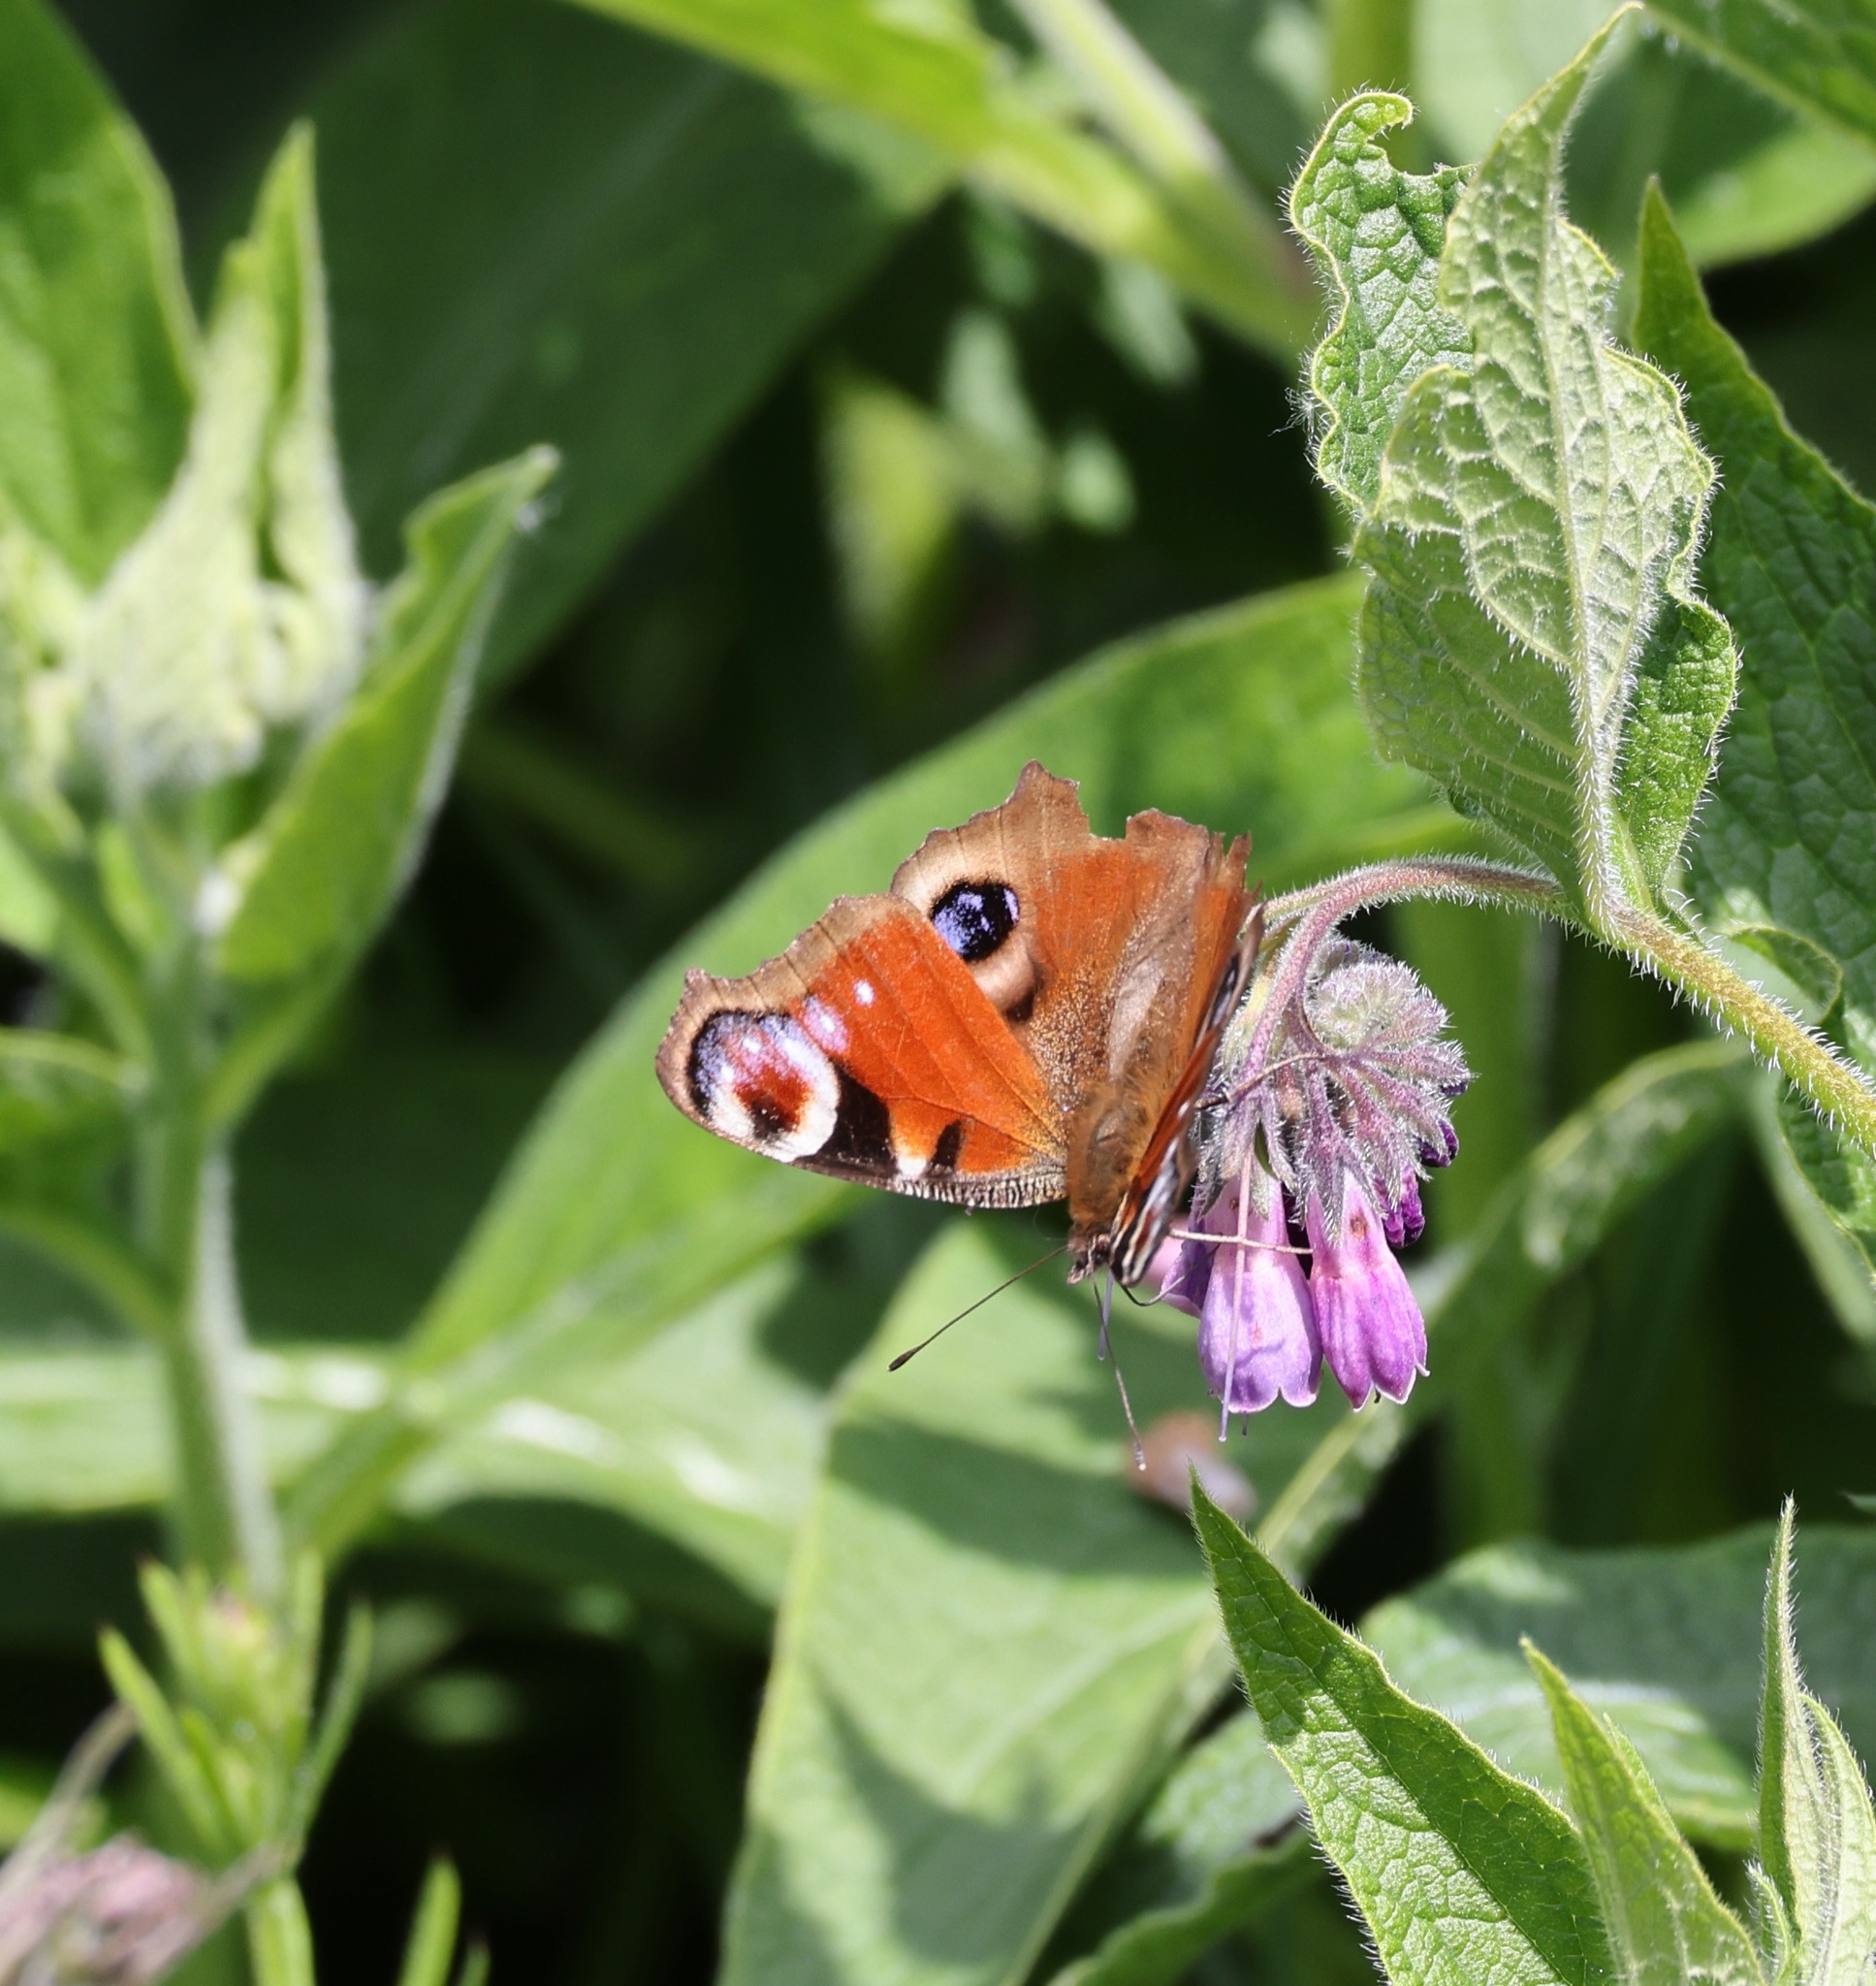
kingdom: Animalia
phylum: Arthropoda
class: Insecta
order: Lepidoptera
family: Nymphalidae
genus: Aglais
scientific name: Aglais io
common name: Peacock
